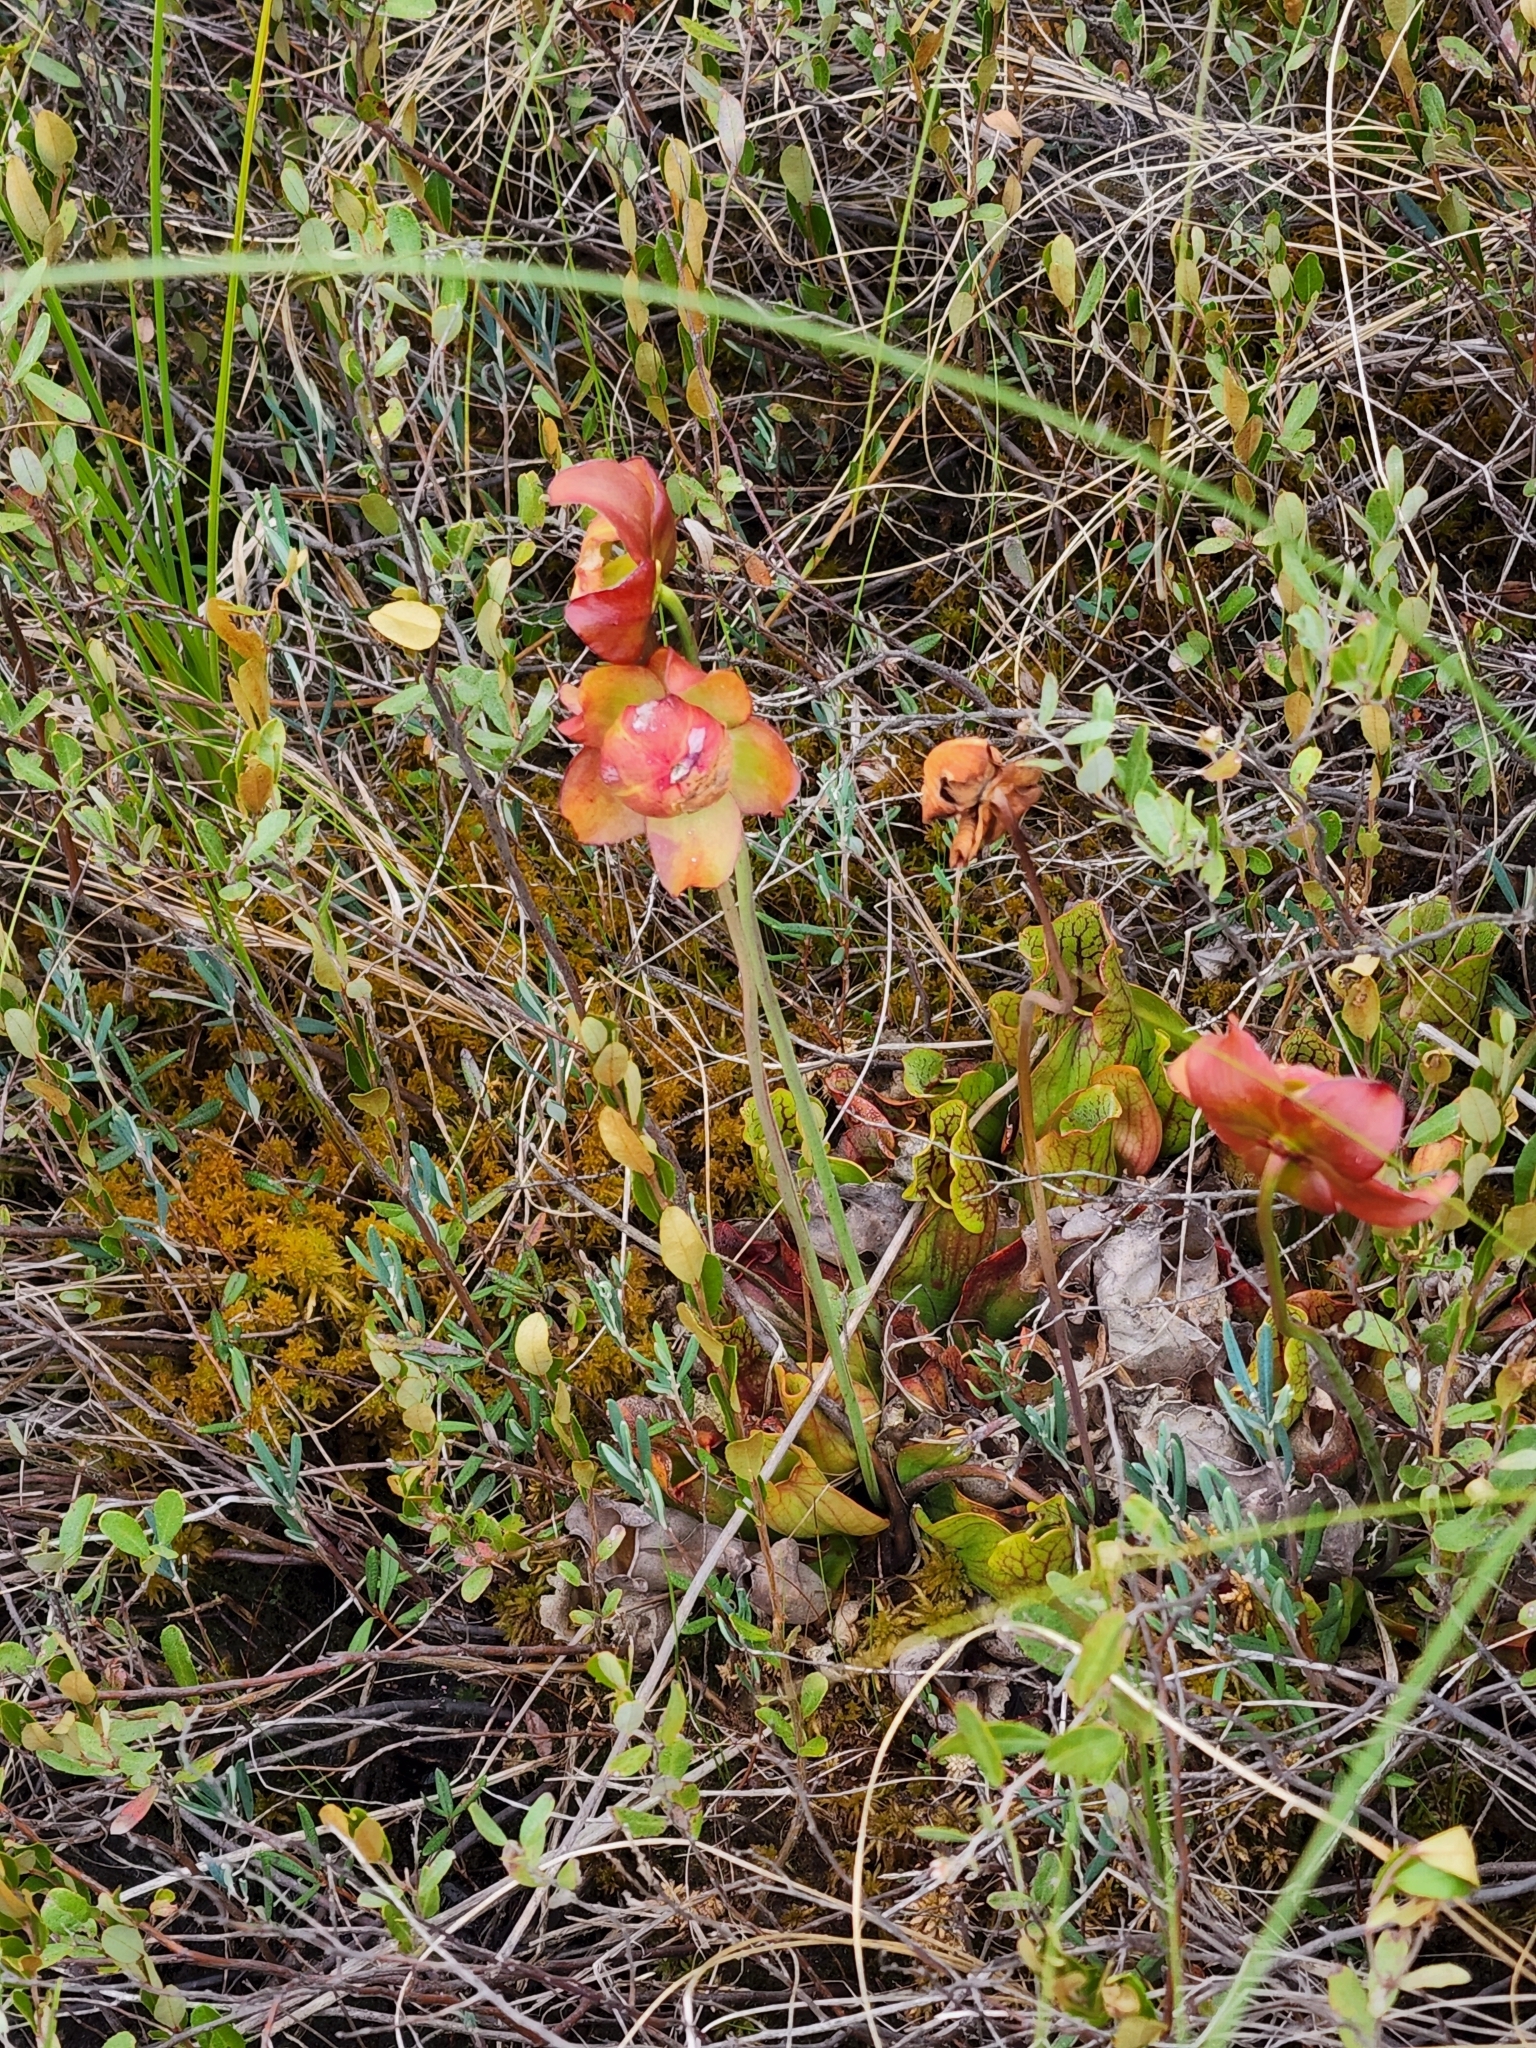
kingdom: Plantae
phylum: Tracheophyta
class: Magnoliopsida
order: Ericales
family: Sarraceniaceae
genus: Sarracenia
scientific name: Sarracenia purpurea
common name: Pitcherplant
